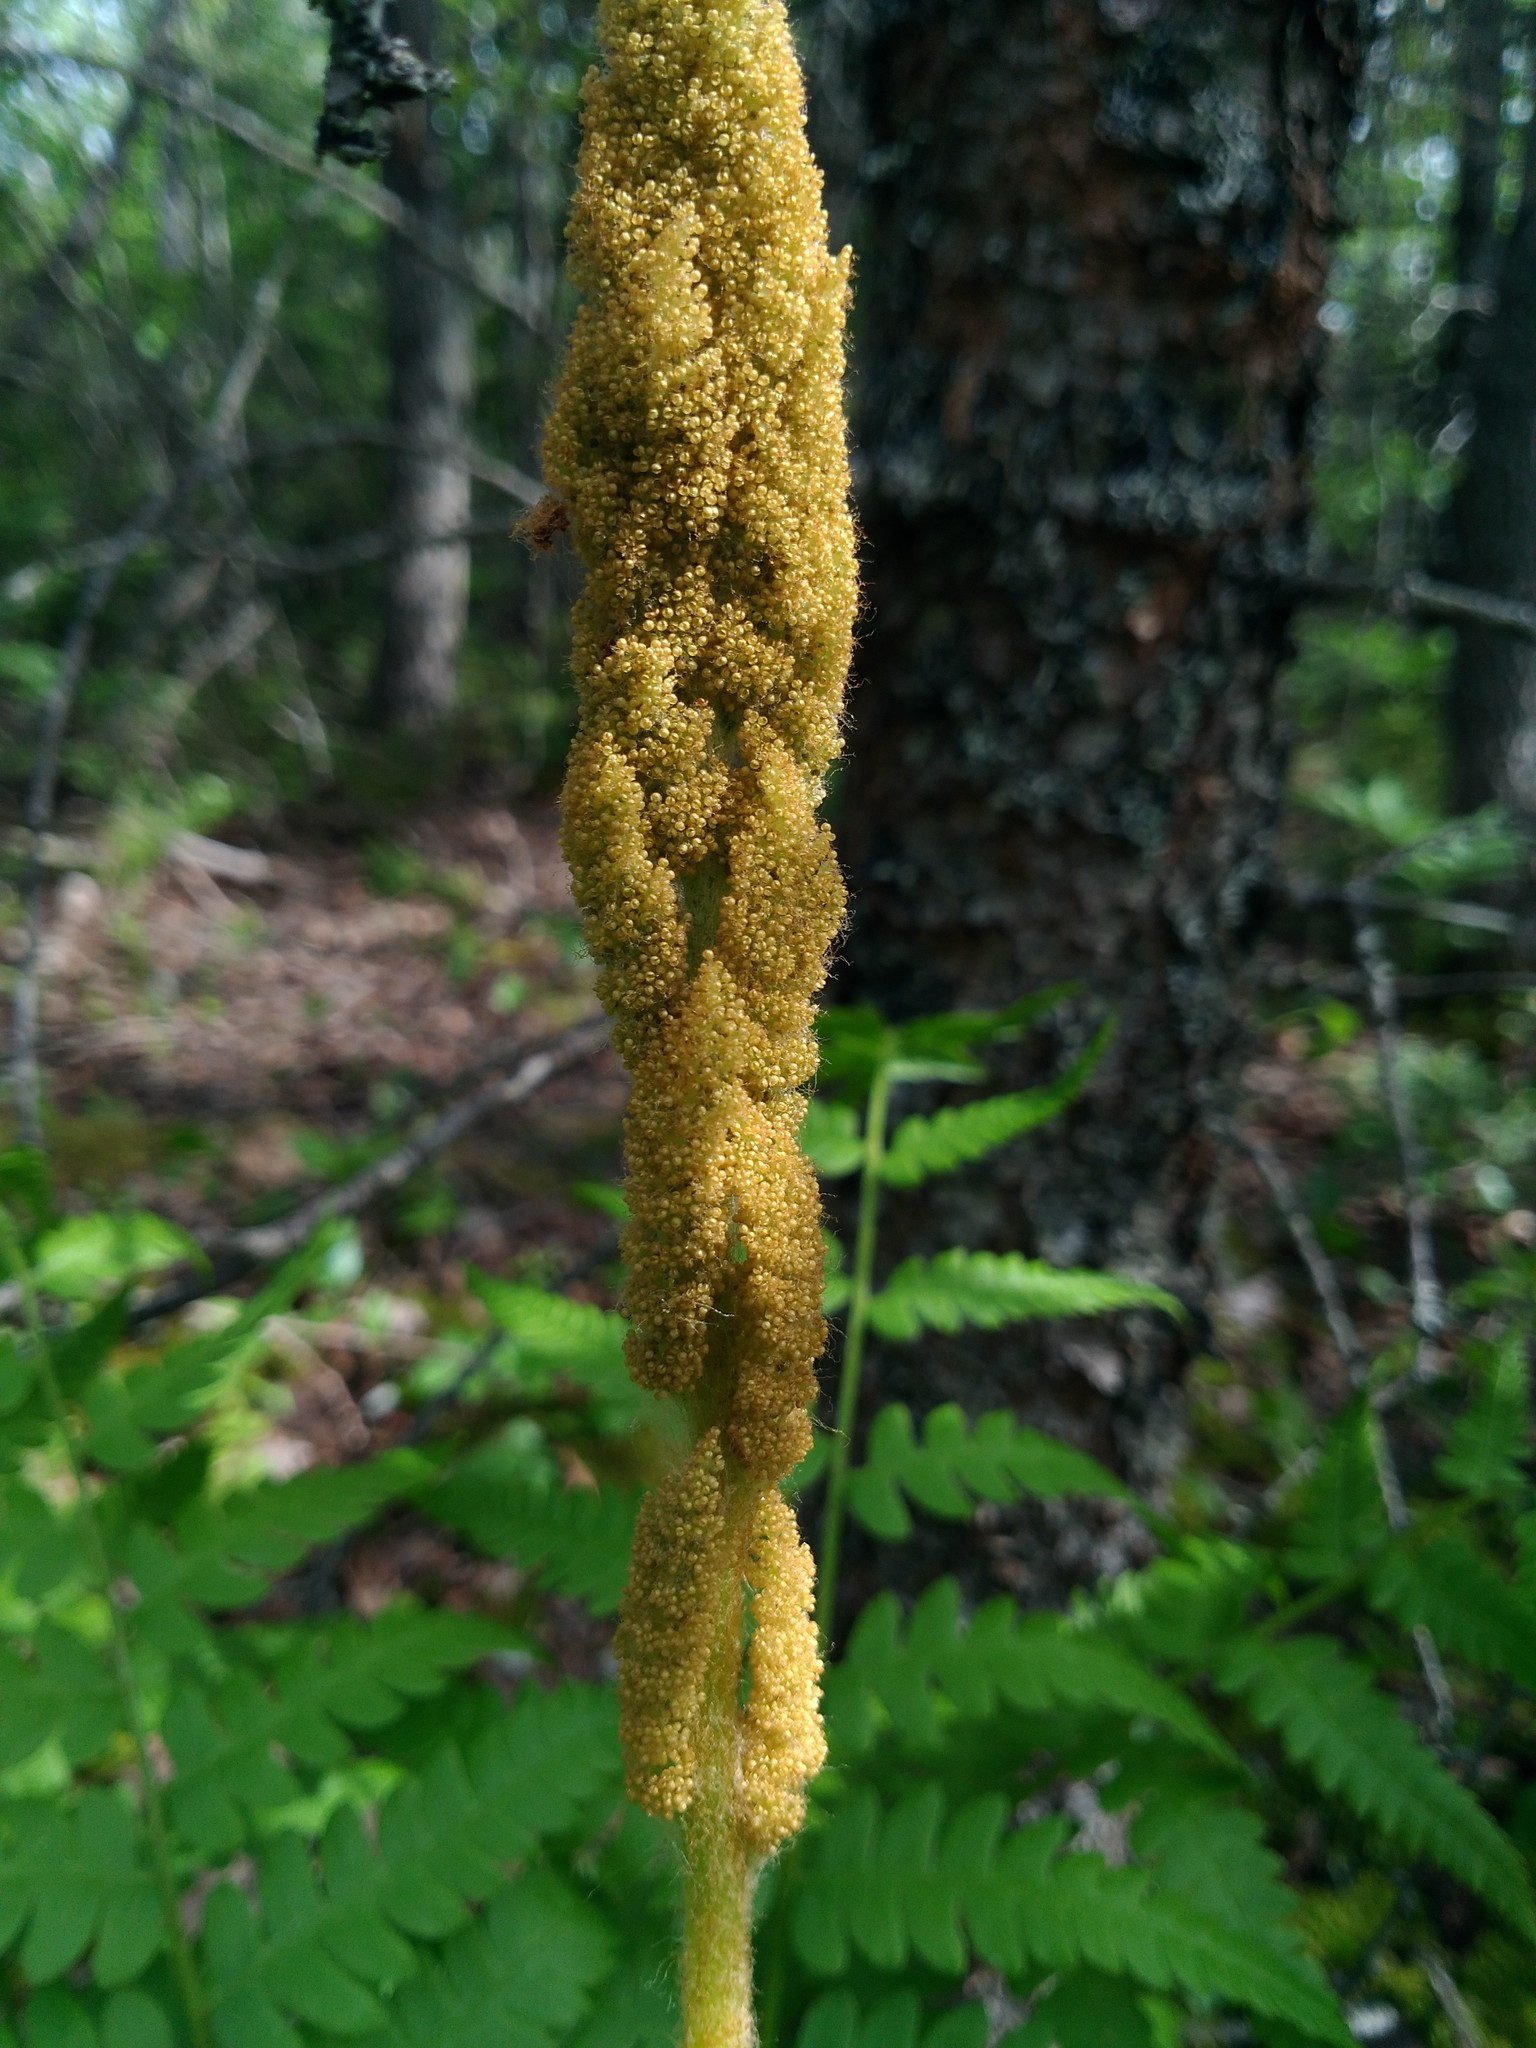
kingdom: Plantae
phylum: Tracheophyta
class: Polypodiopsida
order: Osmundales
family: Osmundaceae
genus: Osmundastrum
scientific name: Osmundastrum cinnamomeum
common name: Cinnamon fern
